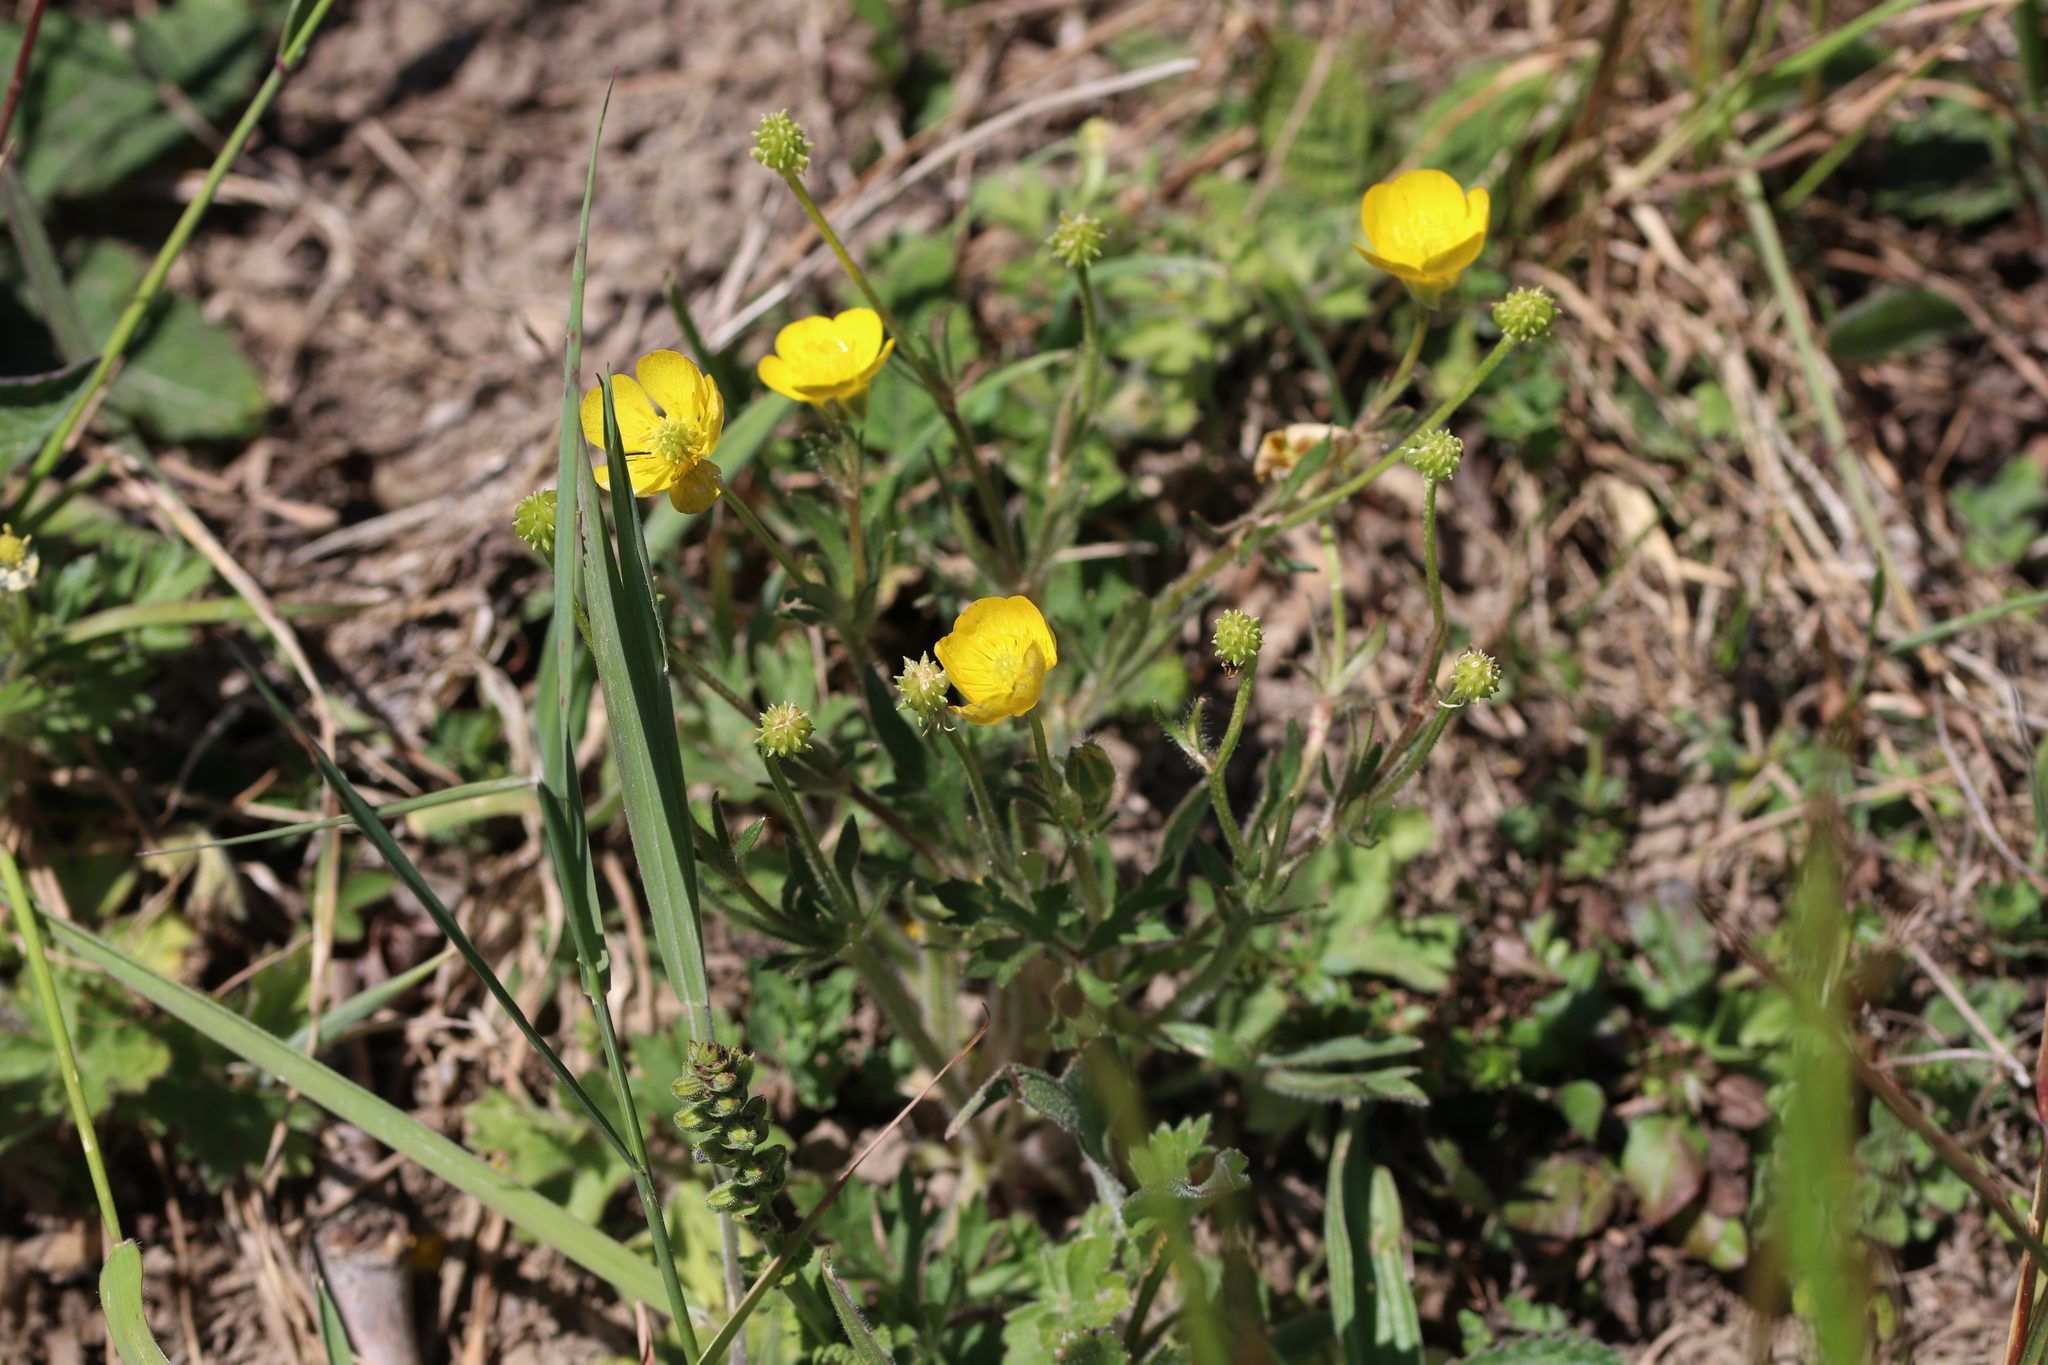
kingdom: Plantae
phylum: Tracheophyta
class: Magnoliopsida
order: Ranunculales
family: Ranunculaceae
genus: Ranunculus
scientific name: Ranunculus bulbosus
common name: Bulbous buttercup
